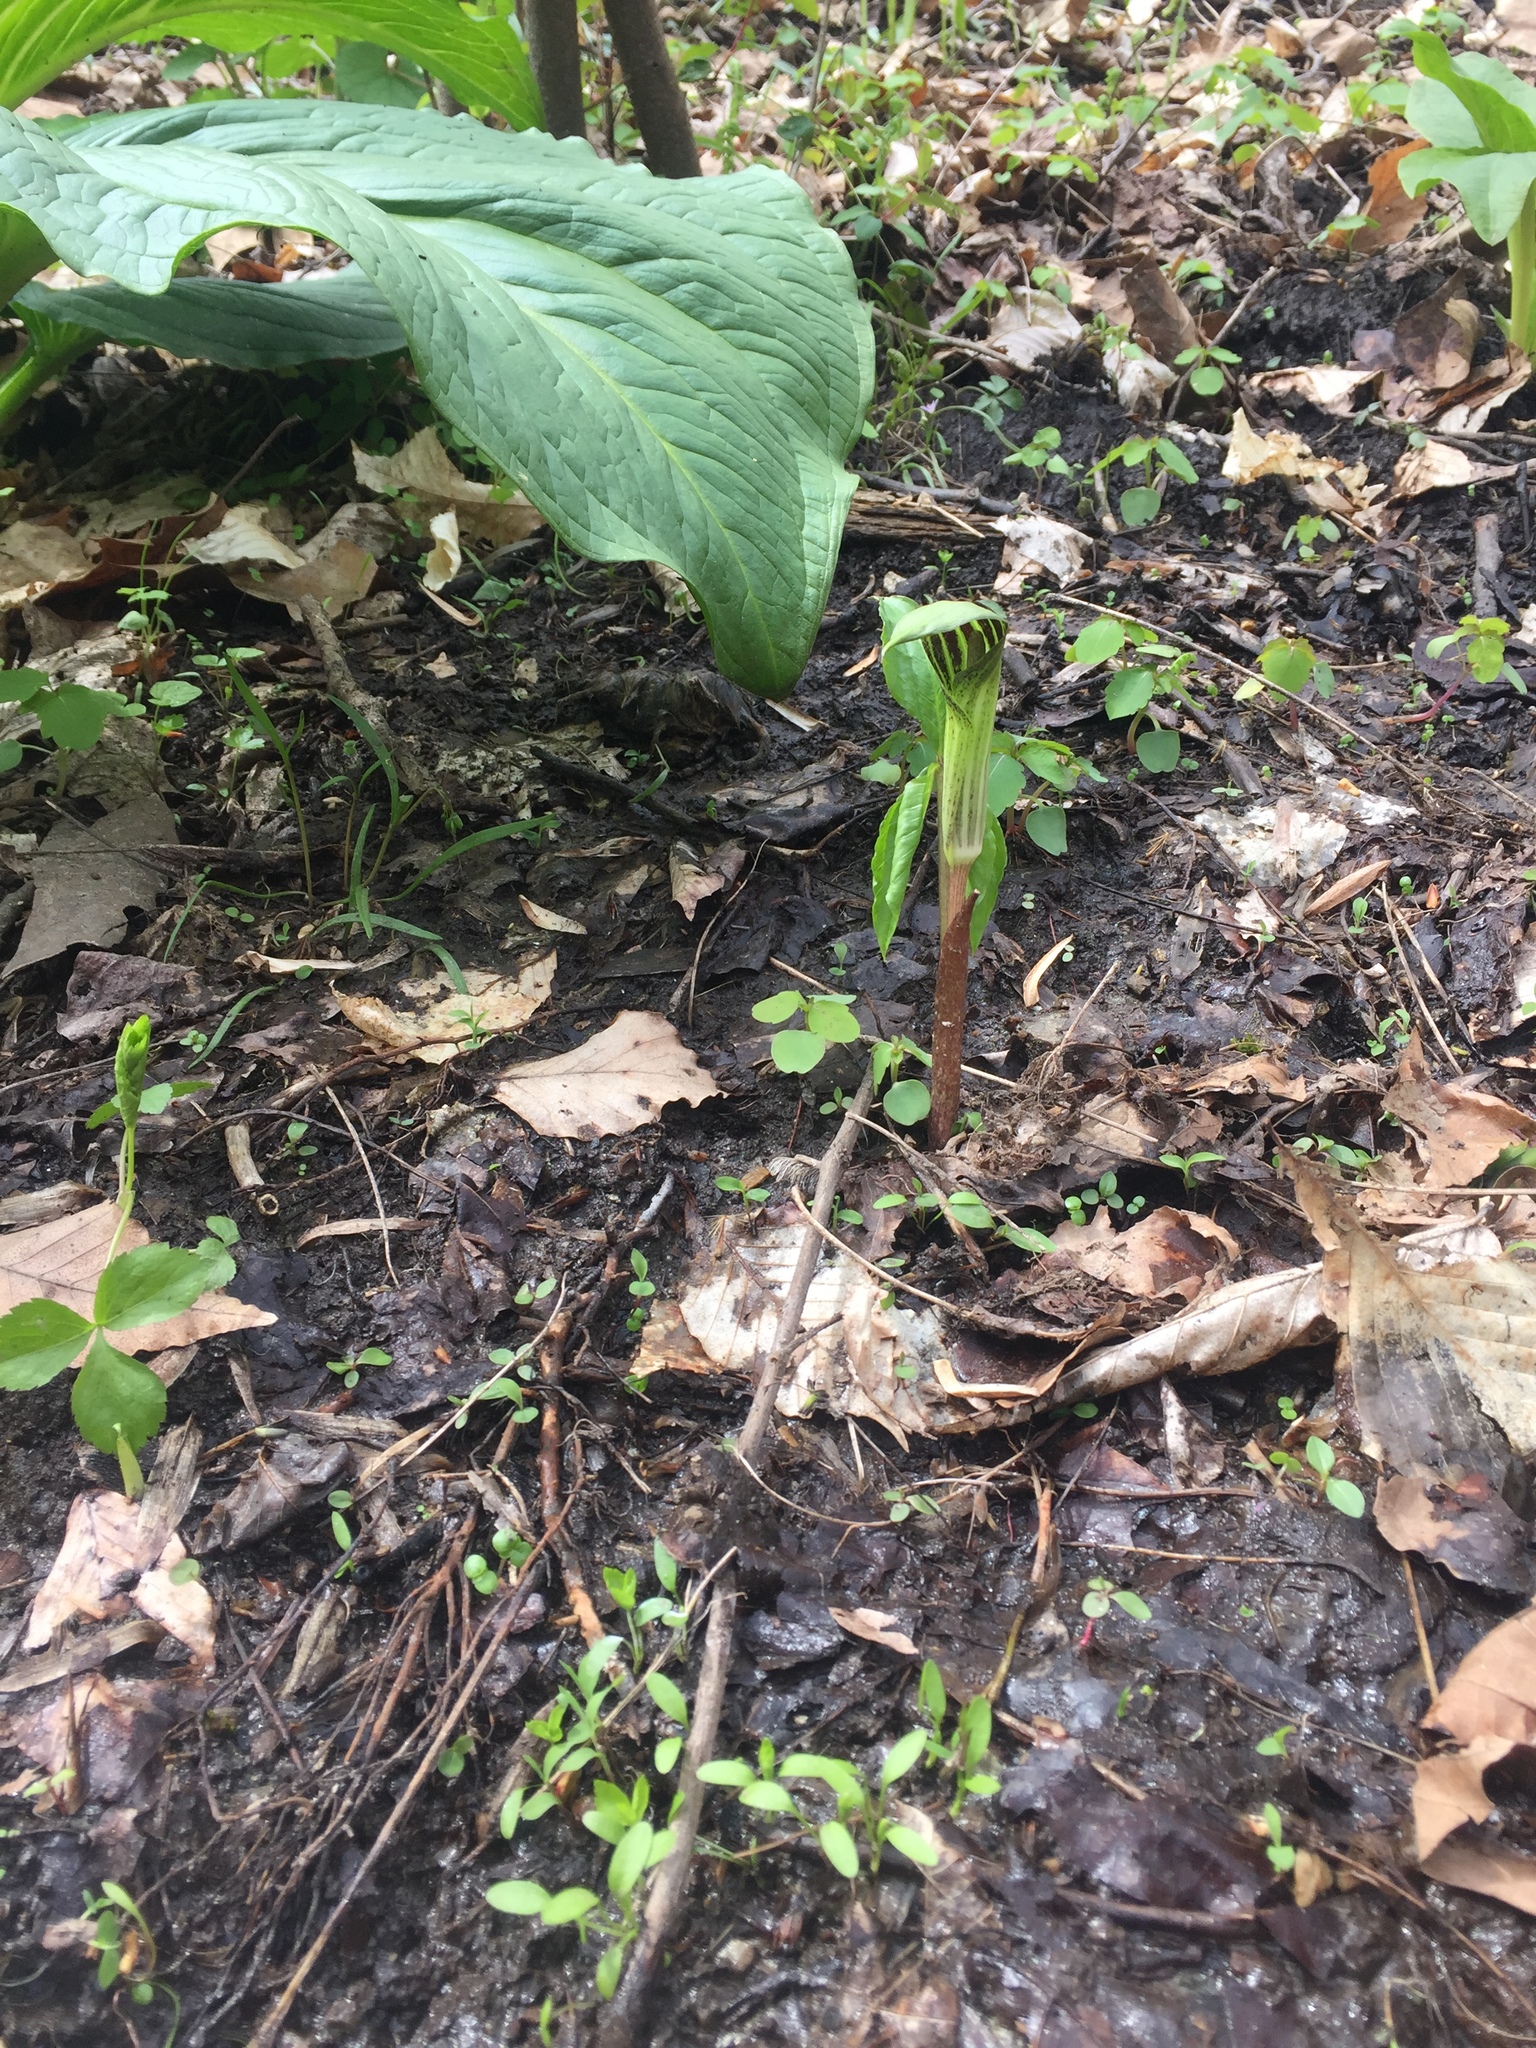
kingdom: Plantae
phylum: Tracheophyta
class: Liliopsida
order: Alismatales
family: Araceae
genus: Arisaema
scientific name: Arisaema triphyllum
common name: Jack-in-the-pulpit
